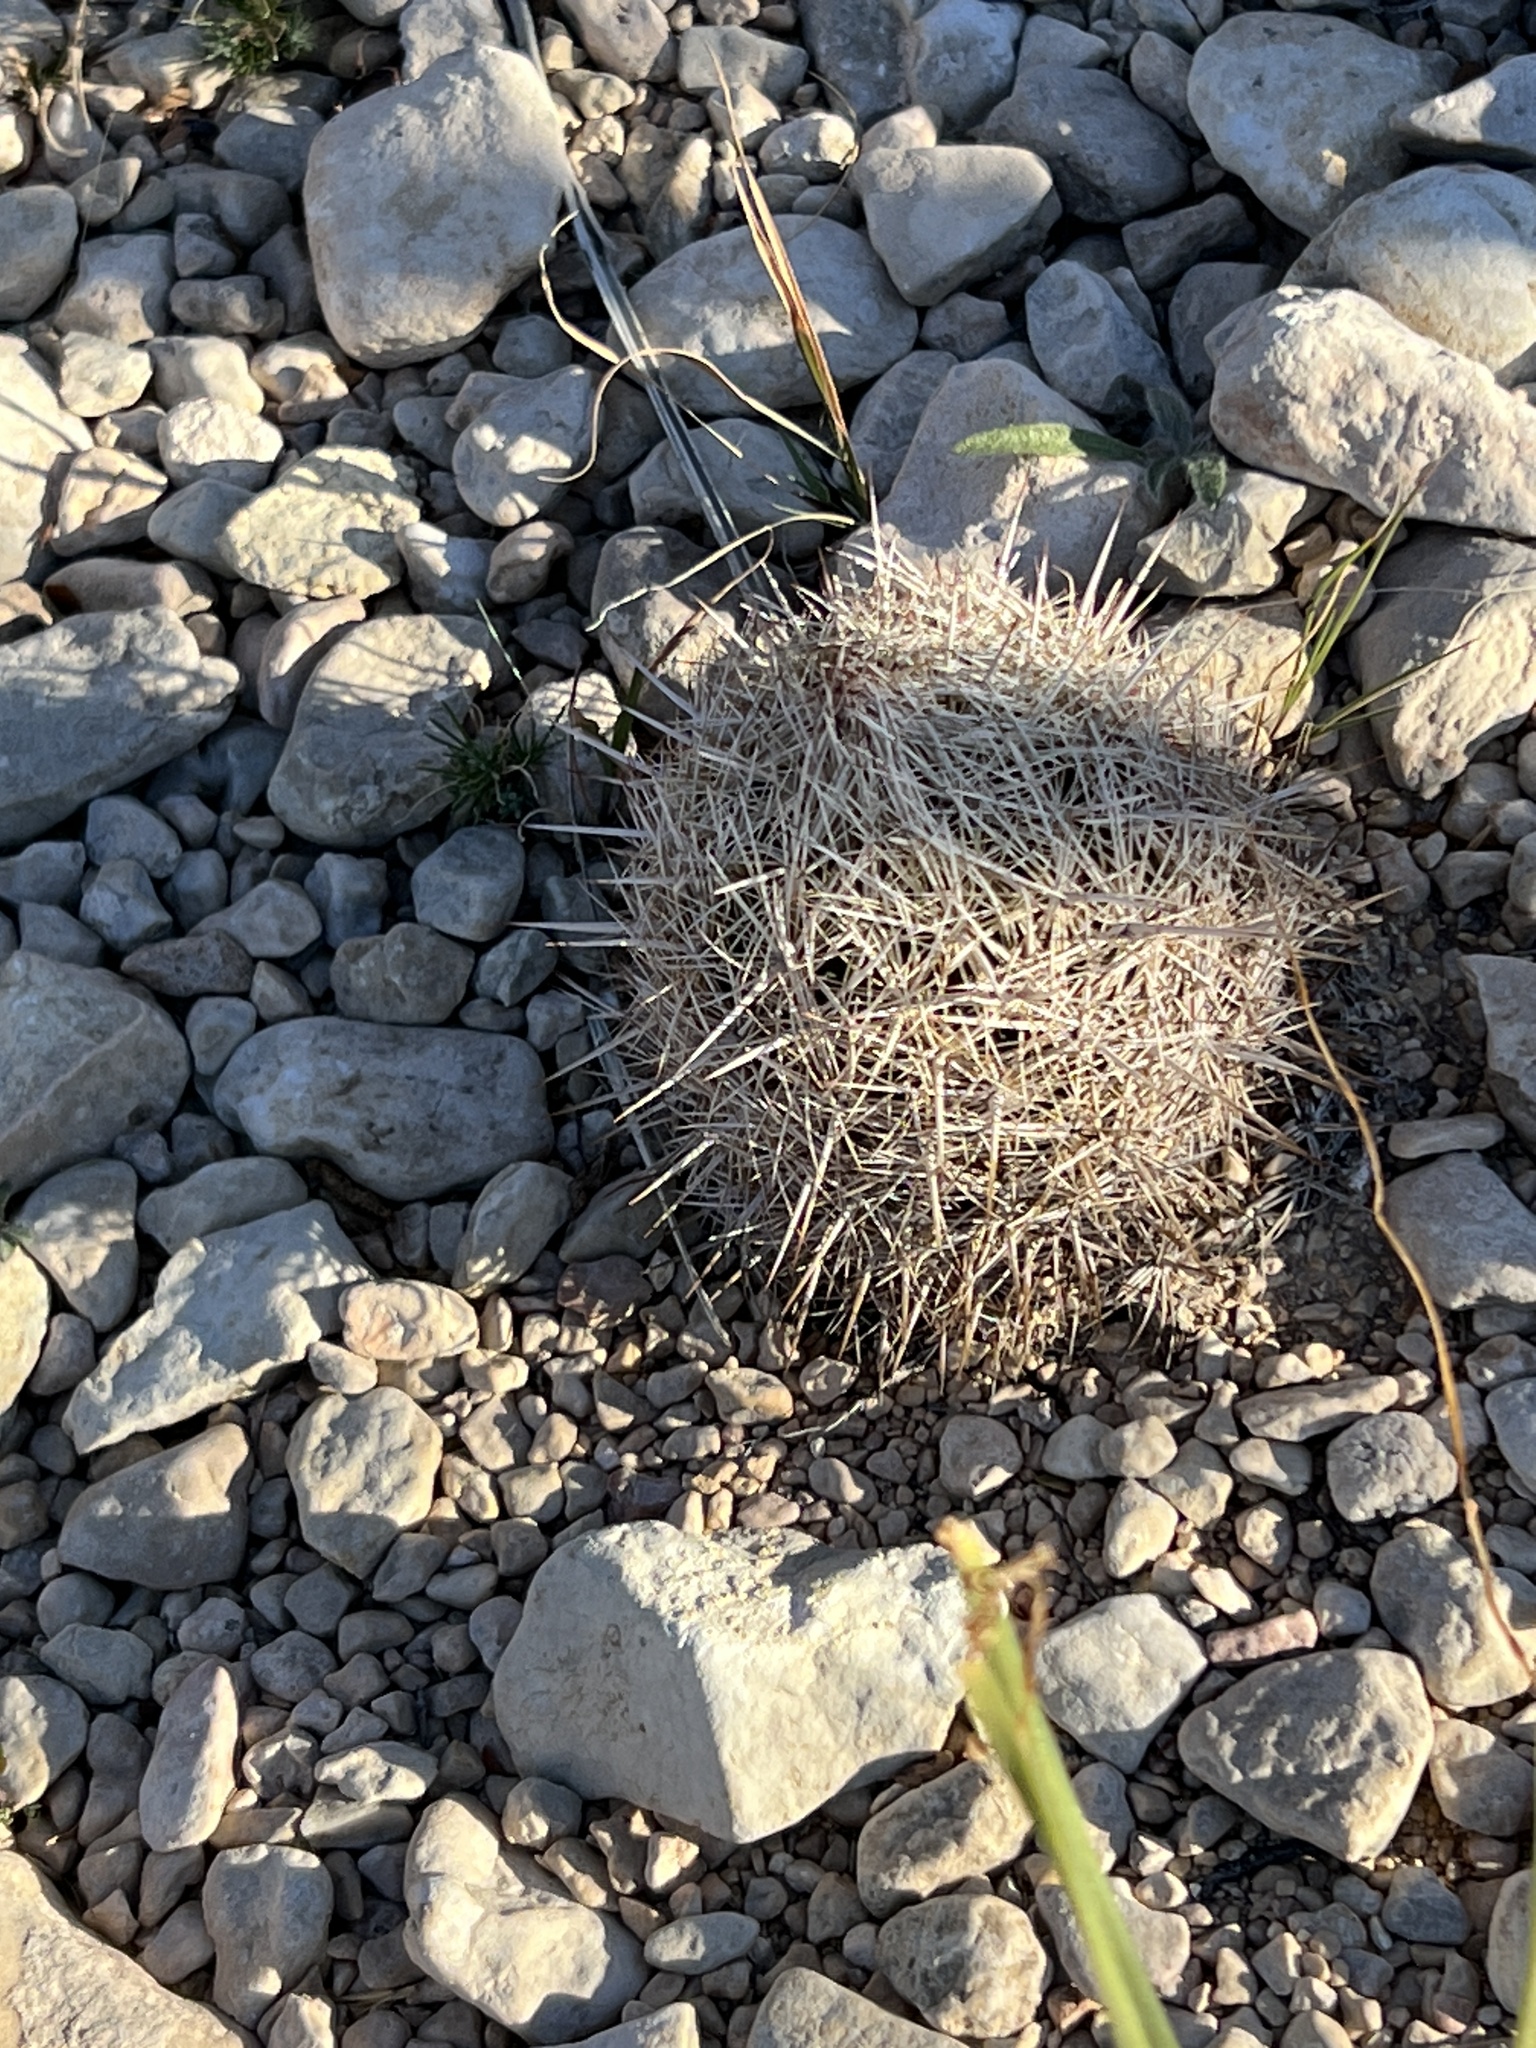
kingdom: Plantae
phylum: Tracheophyta
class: Magnoliopsida
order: Caryophyllales
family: Cactaceae
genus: Coryphantha
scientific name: Coryphantha echinus
